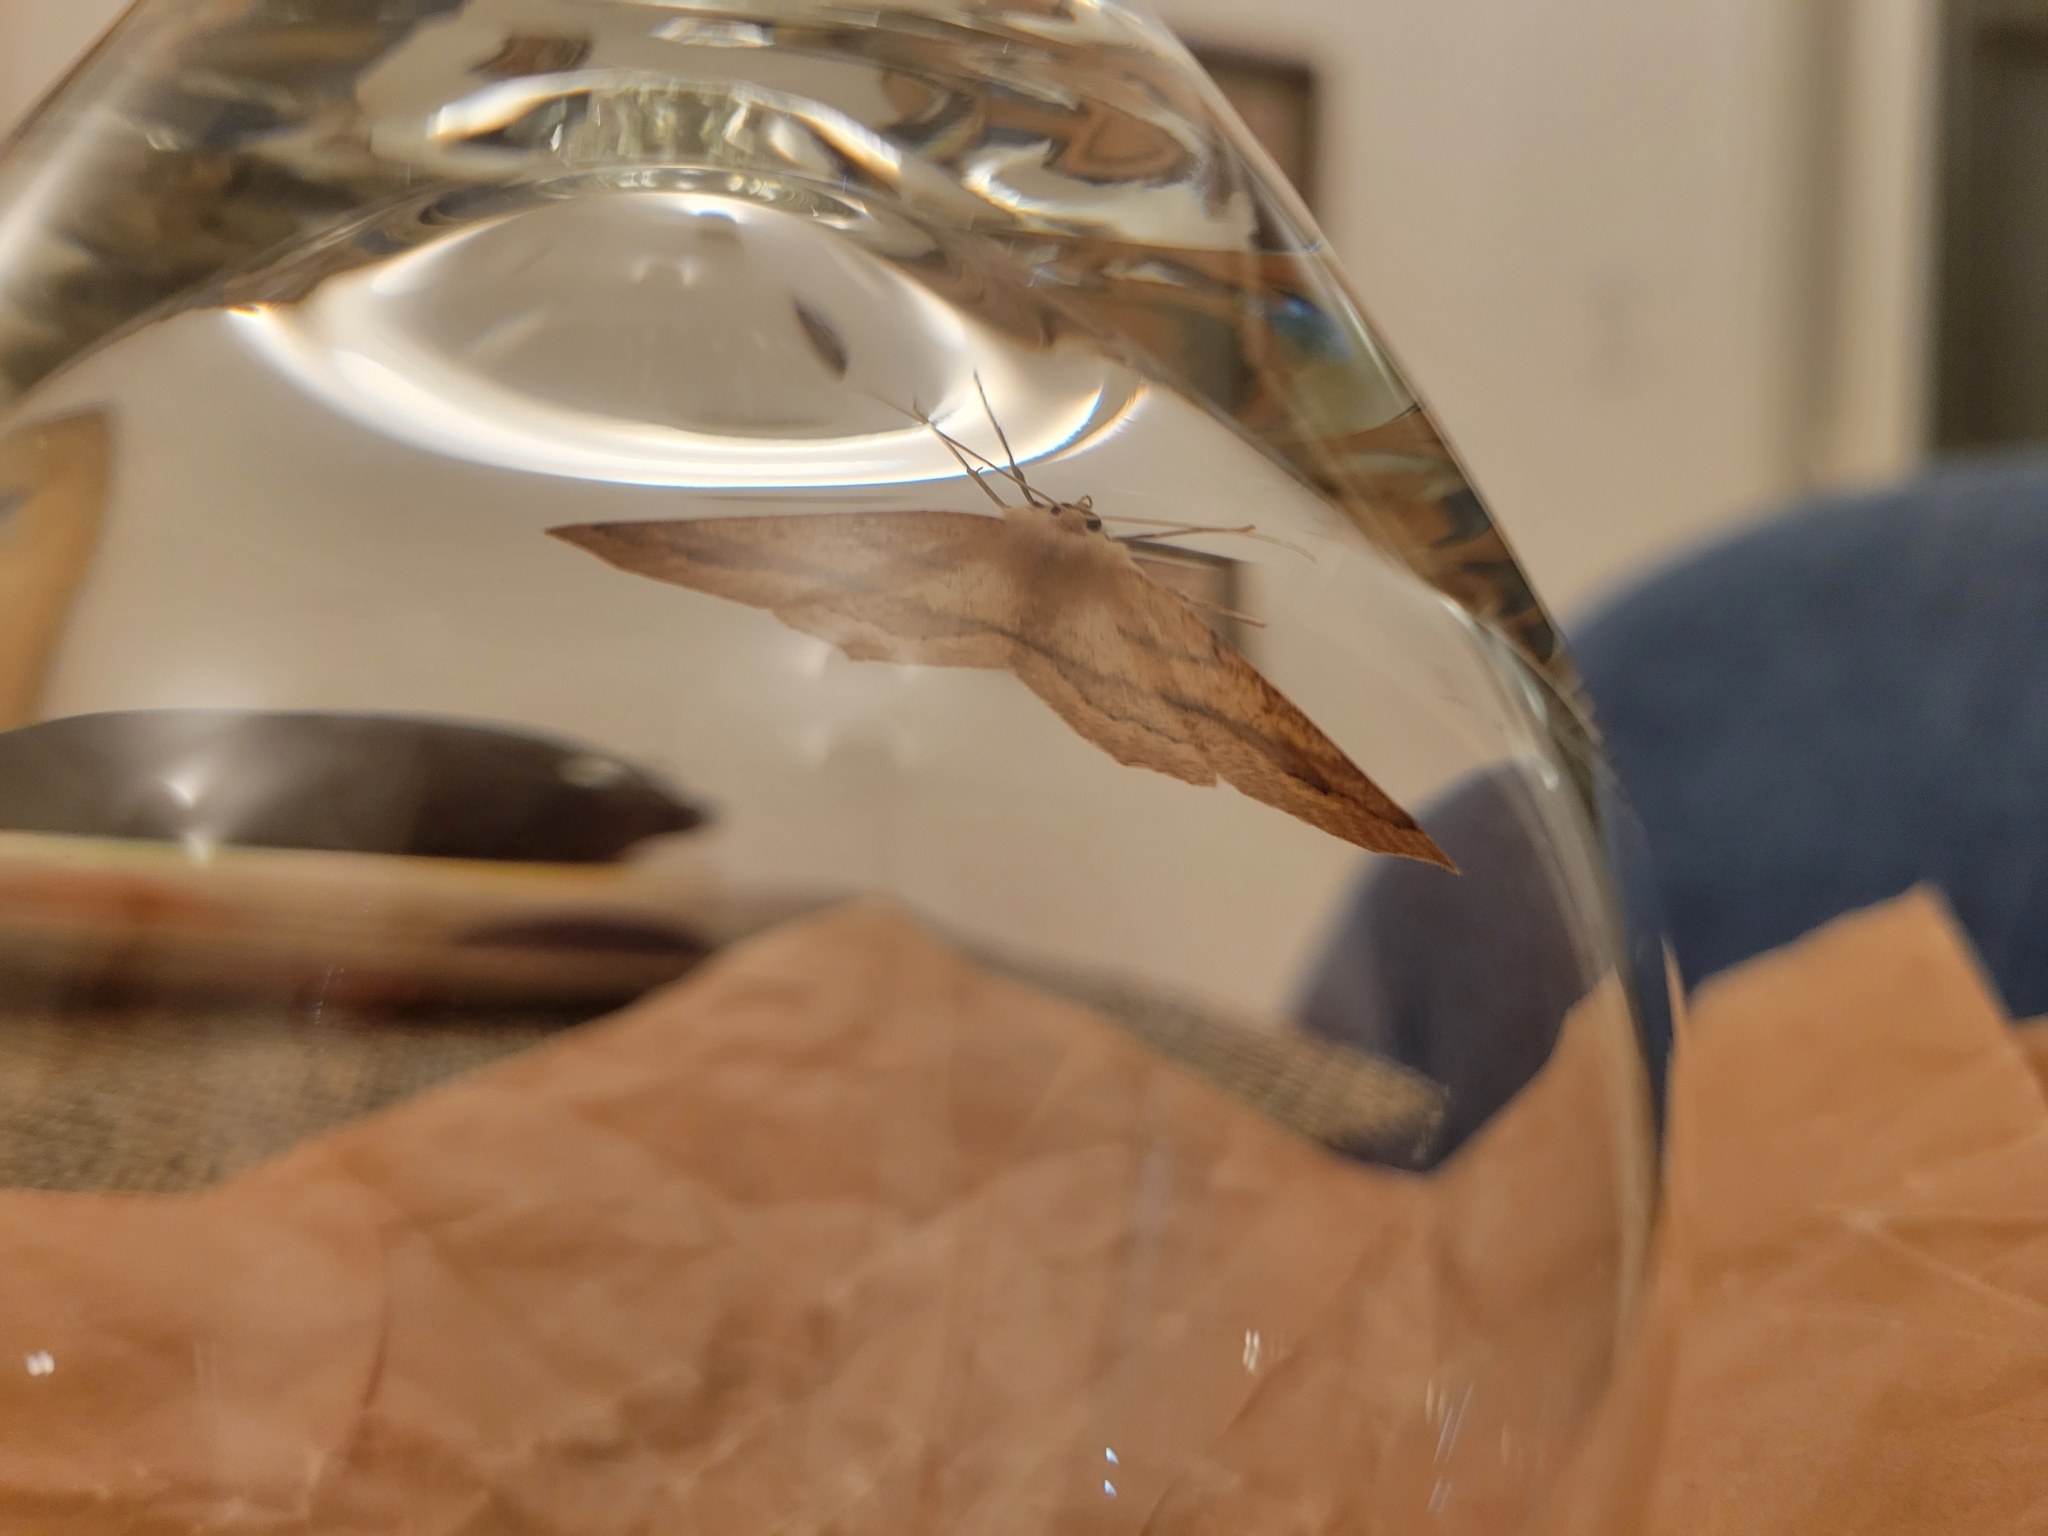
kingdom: Animalia
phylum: Arthropoda
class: Insecta
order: Lepidoptera
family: Geometridae
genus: Sabulodes
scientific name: Sabulodes aegrotata
